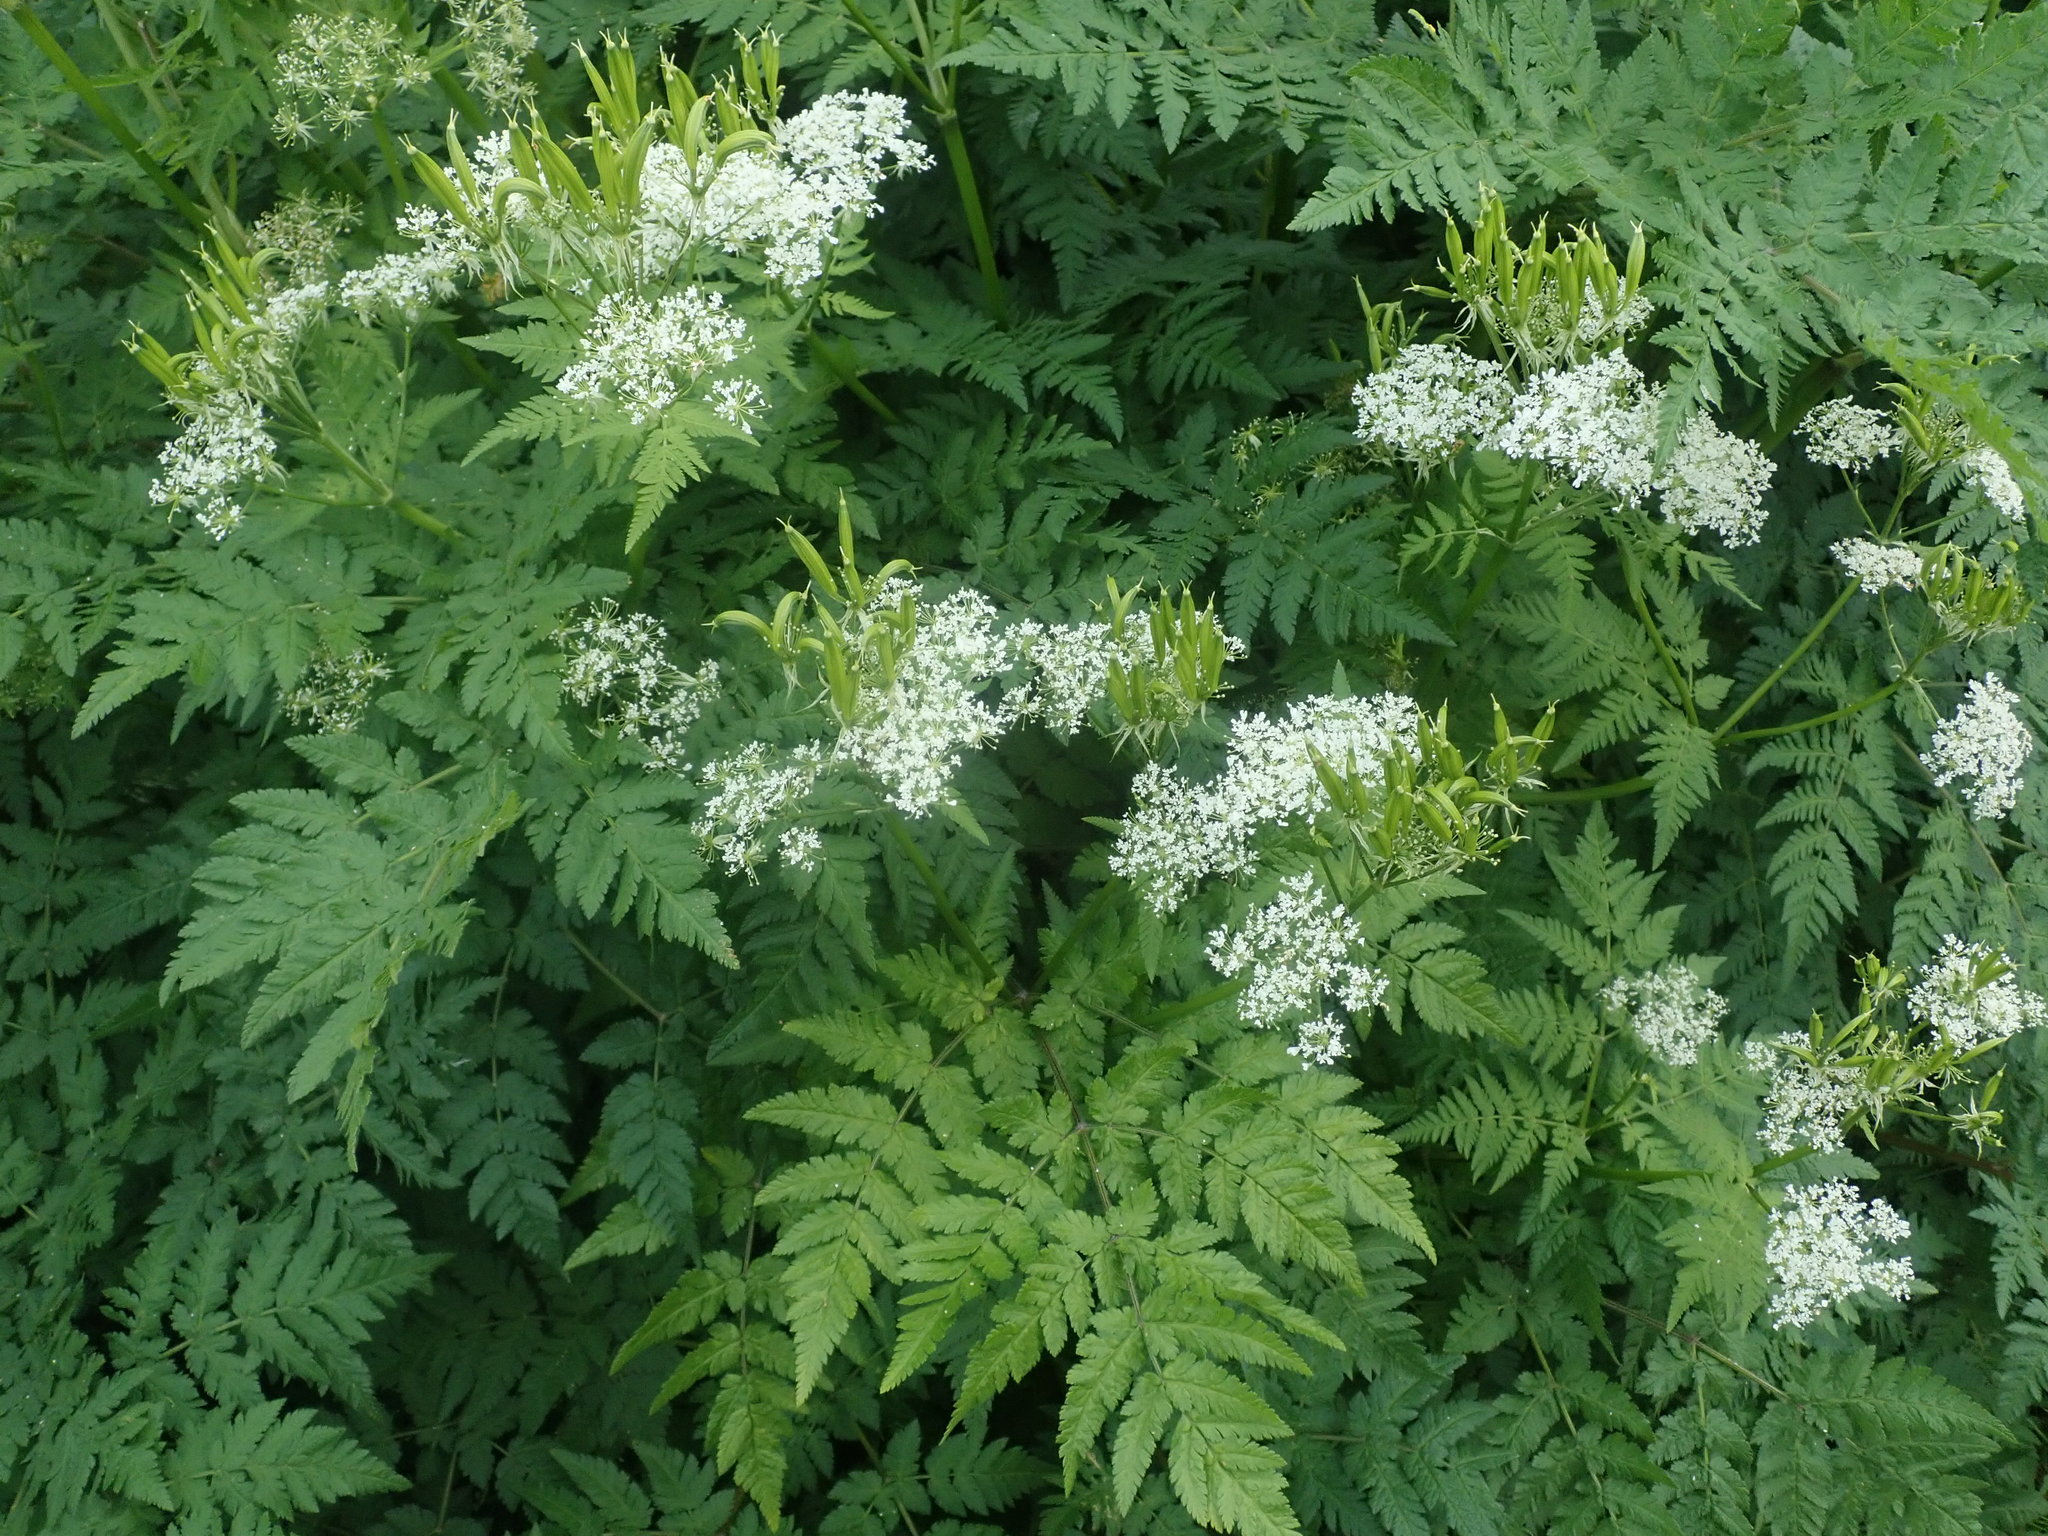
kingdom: Plantae
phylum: Tracheophyta
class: Magnoliopsida
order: Apiales
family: Apiaceae
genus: Myrrhis
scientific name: Myrrhis odorata
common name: Sweet cicely
